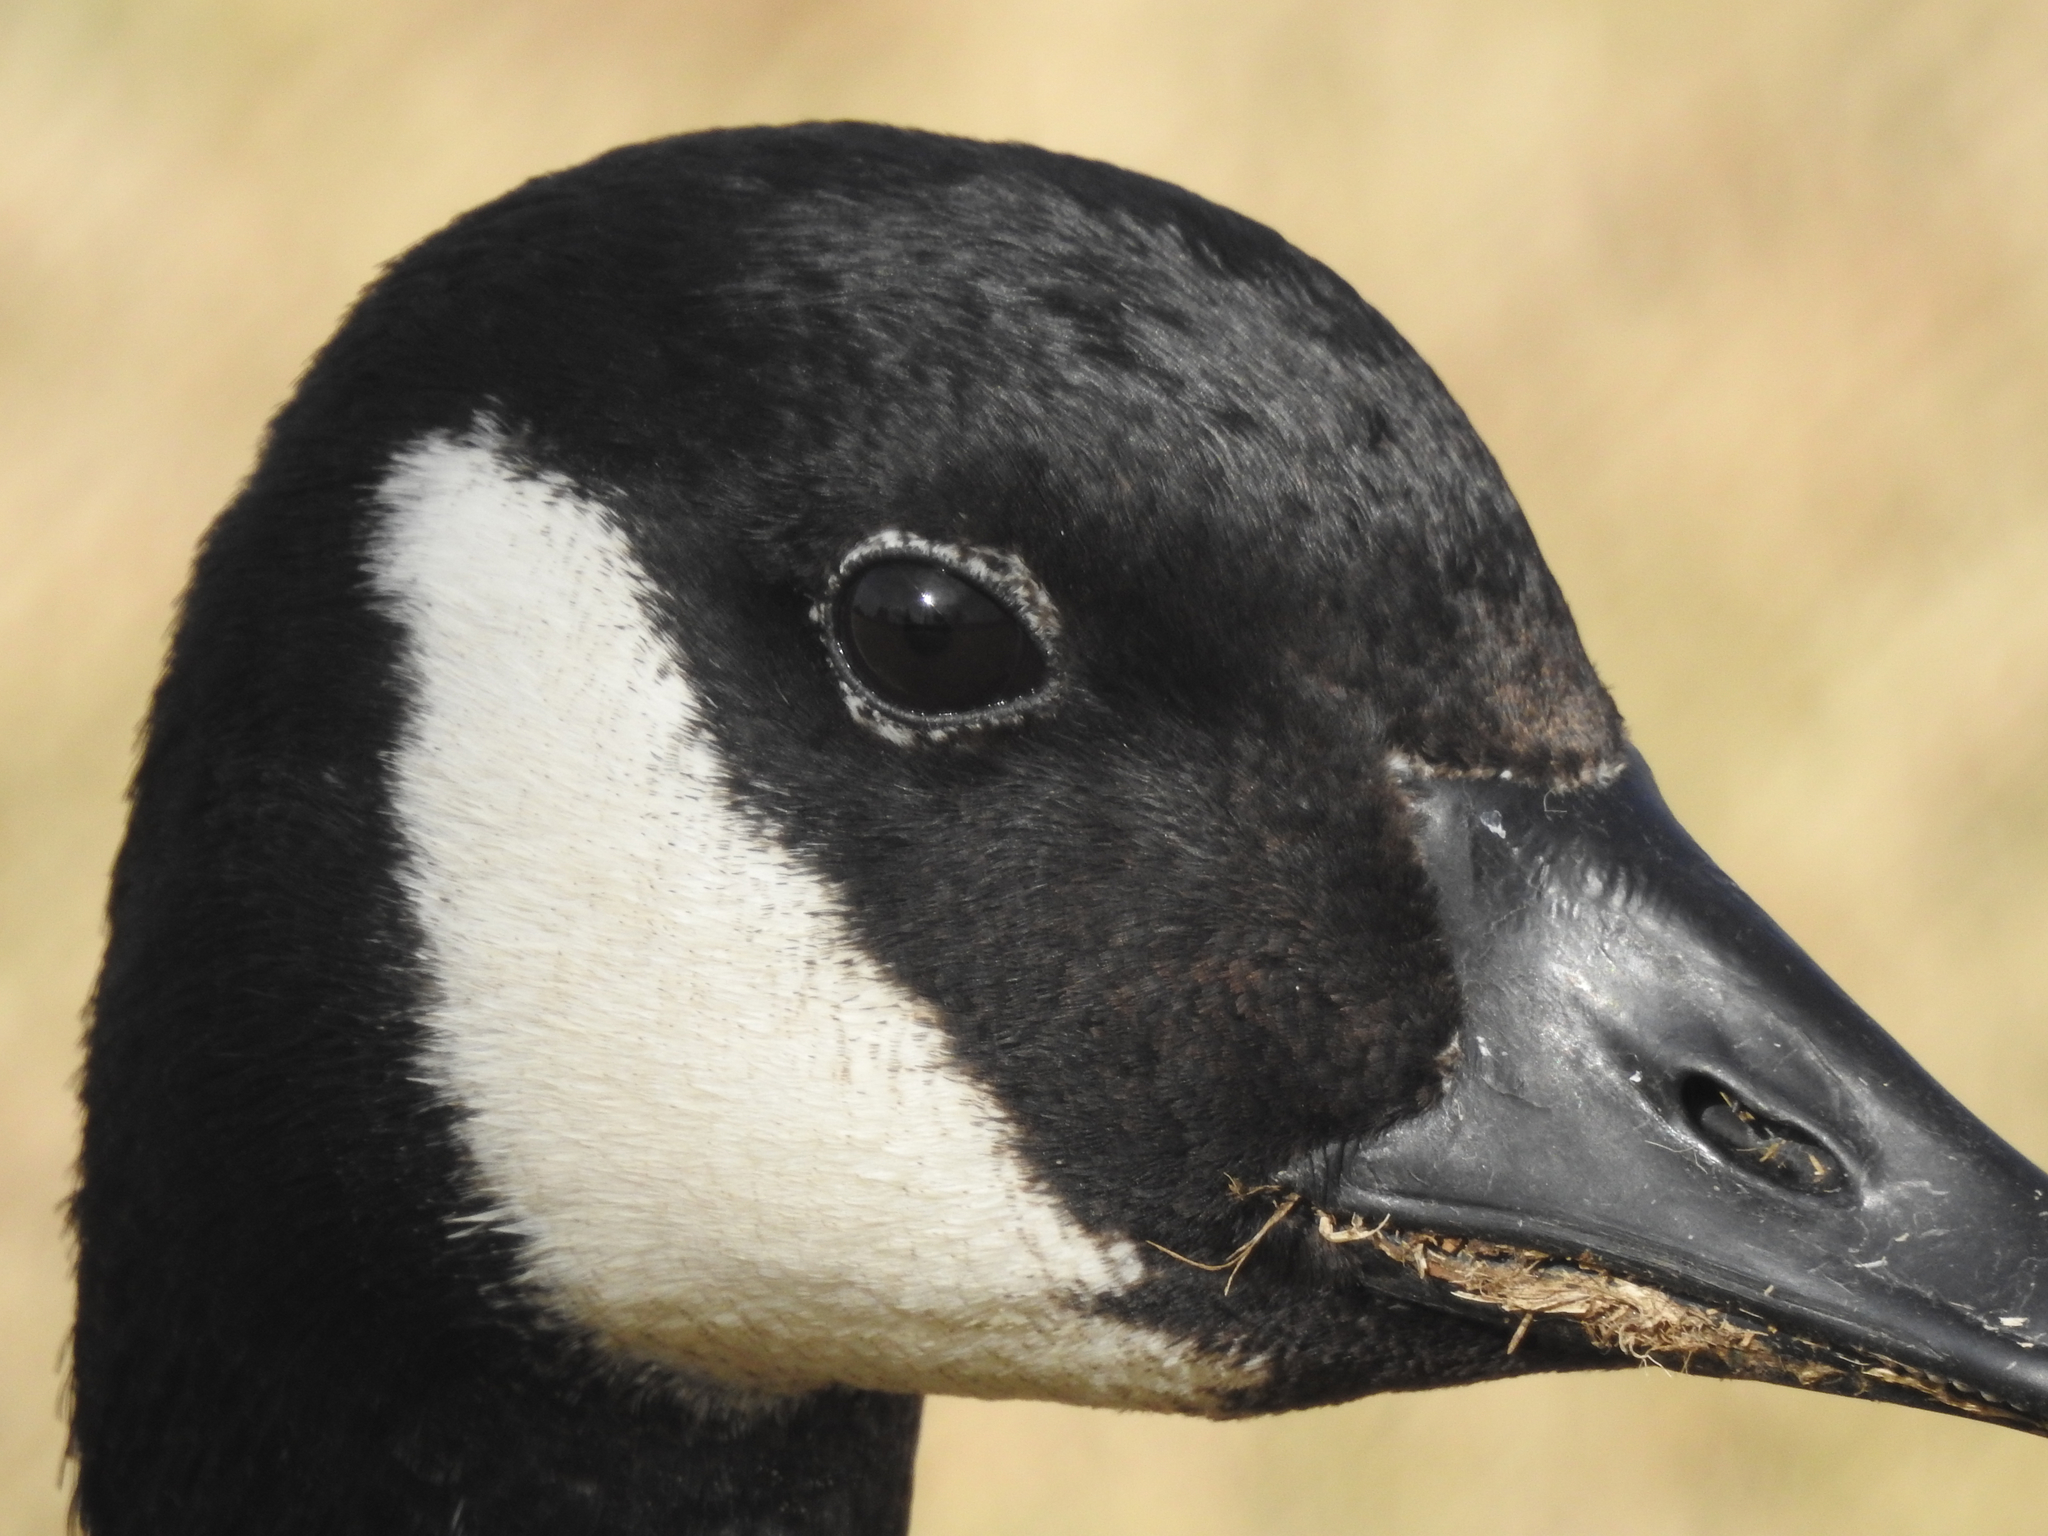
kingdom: Animalia
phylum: Chordata
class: Aves
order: Anseriformes
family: Anatidae
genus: Branta
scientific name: Branta canadensis
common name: Canada goose
